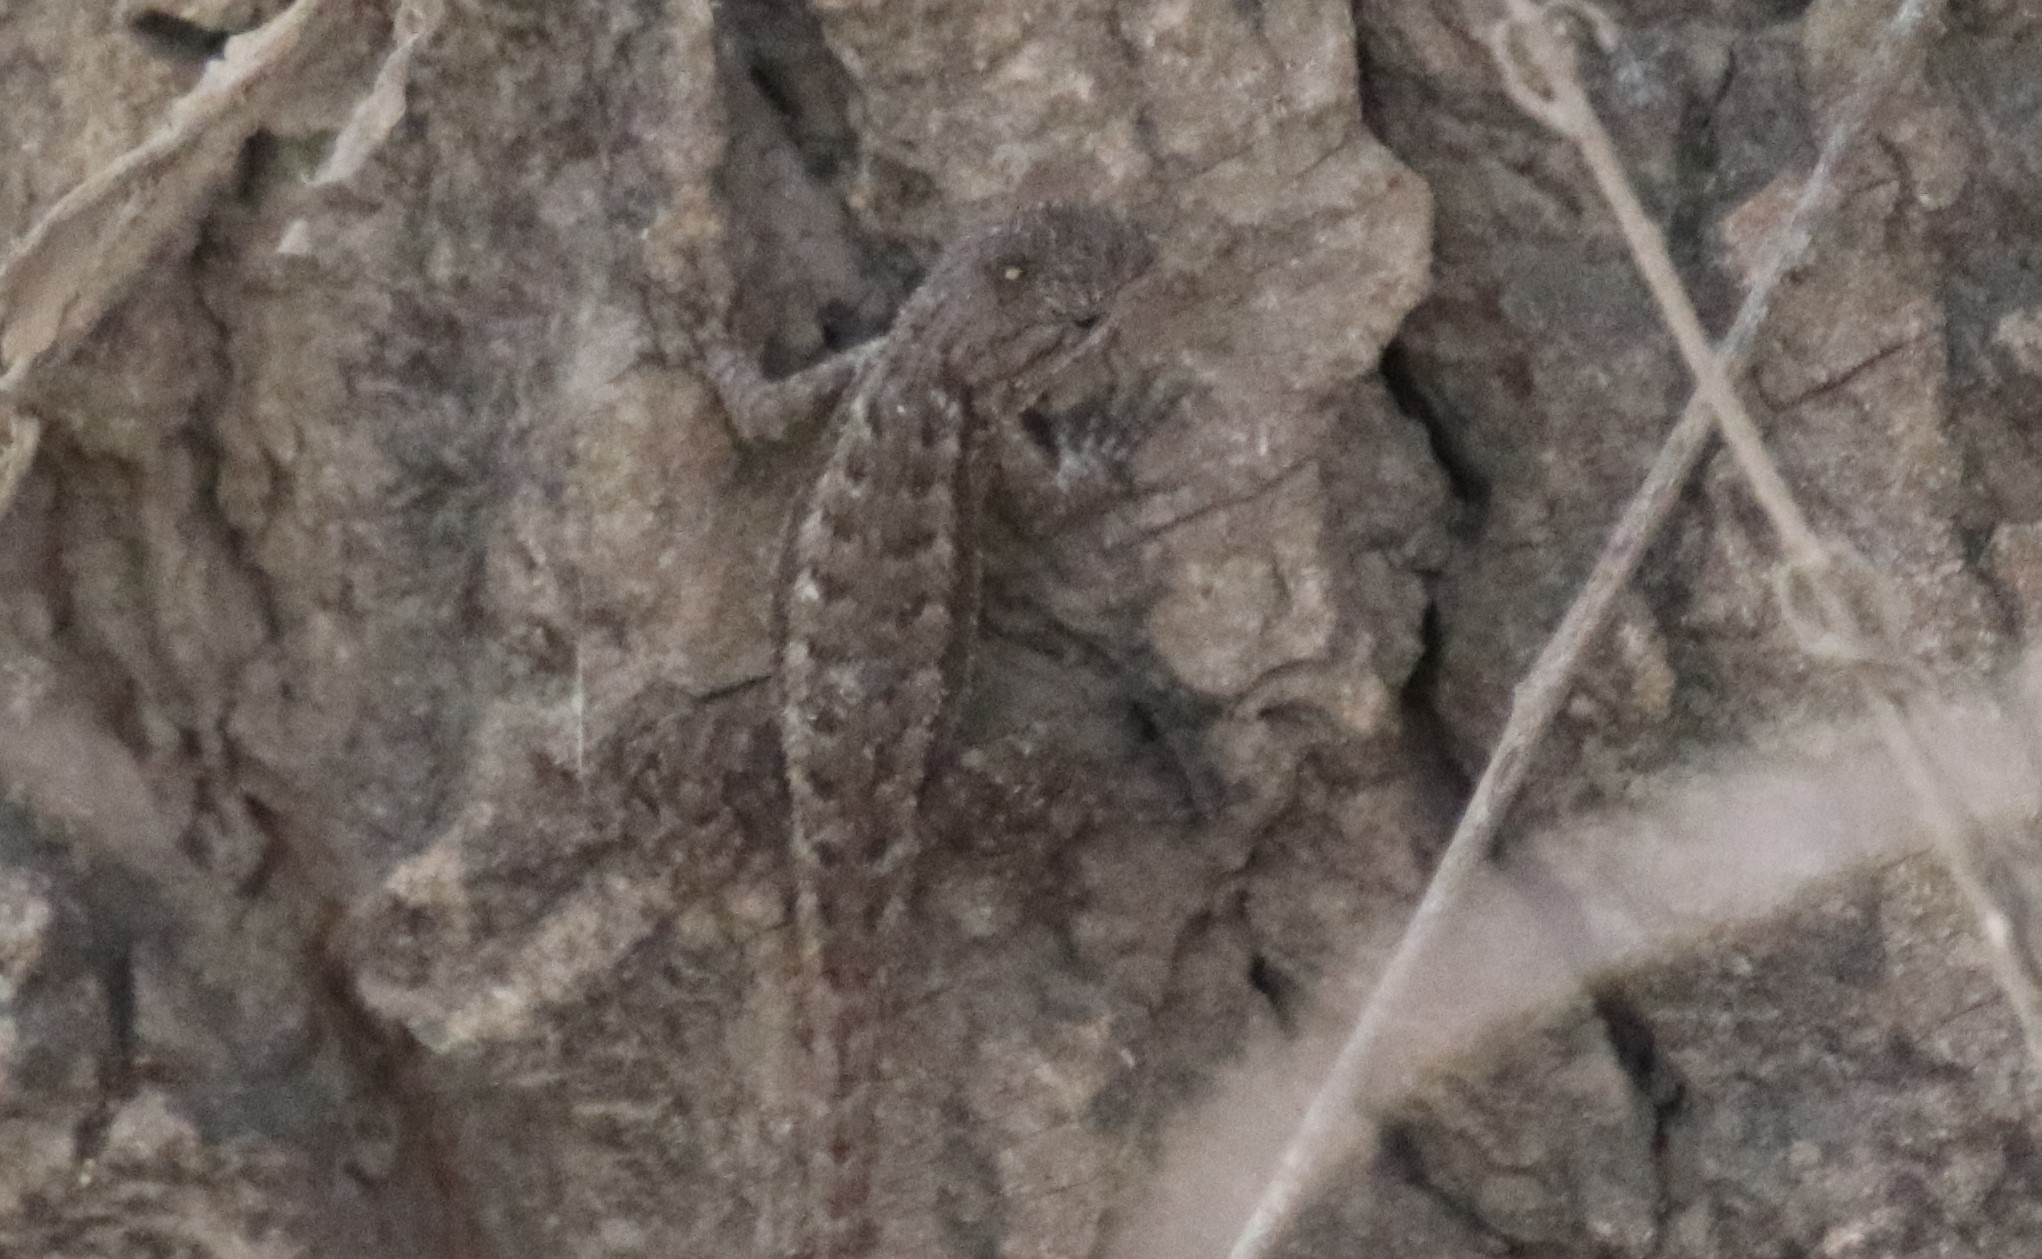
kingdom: Animalia
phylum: Chordata
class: Squamata
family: Phrynosomatidae
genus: Sceloporus
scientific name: Sceloporus occidentalis
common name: Western fence lizard
